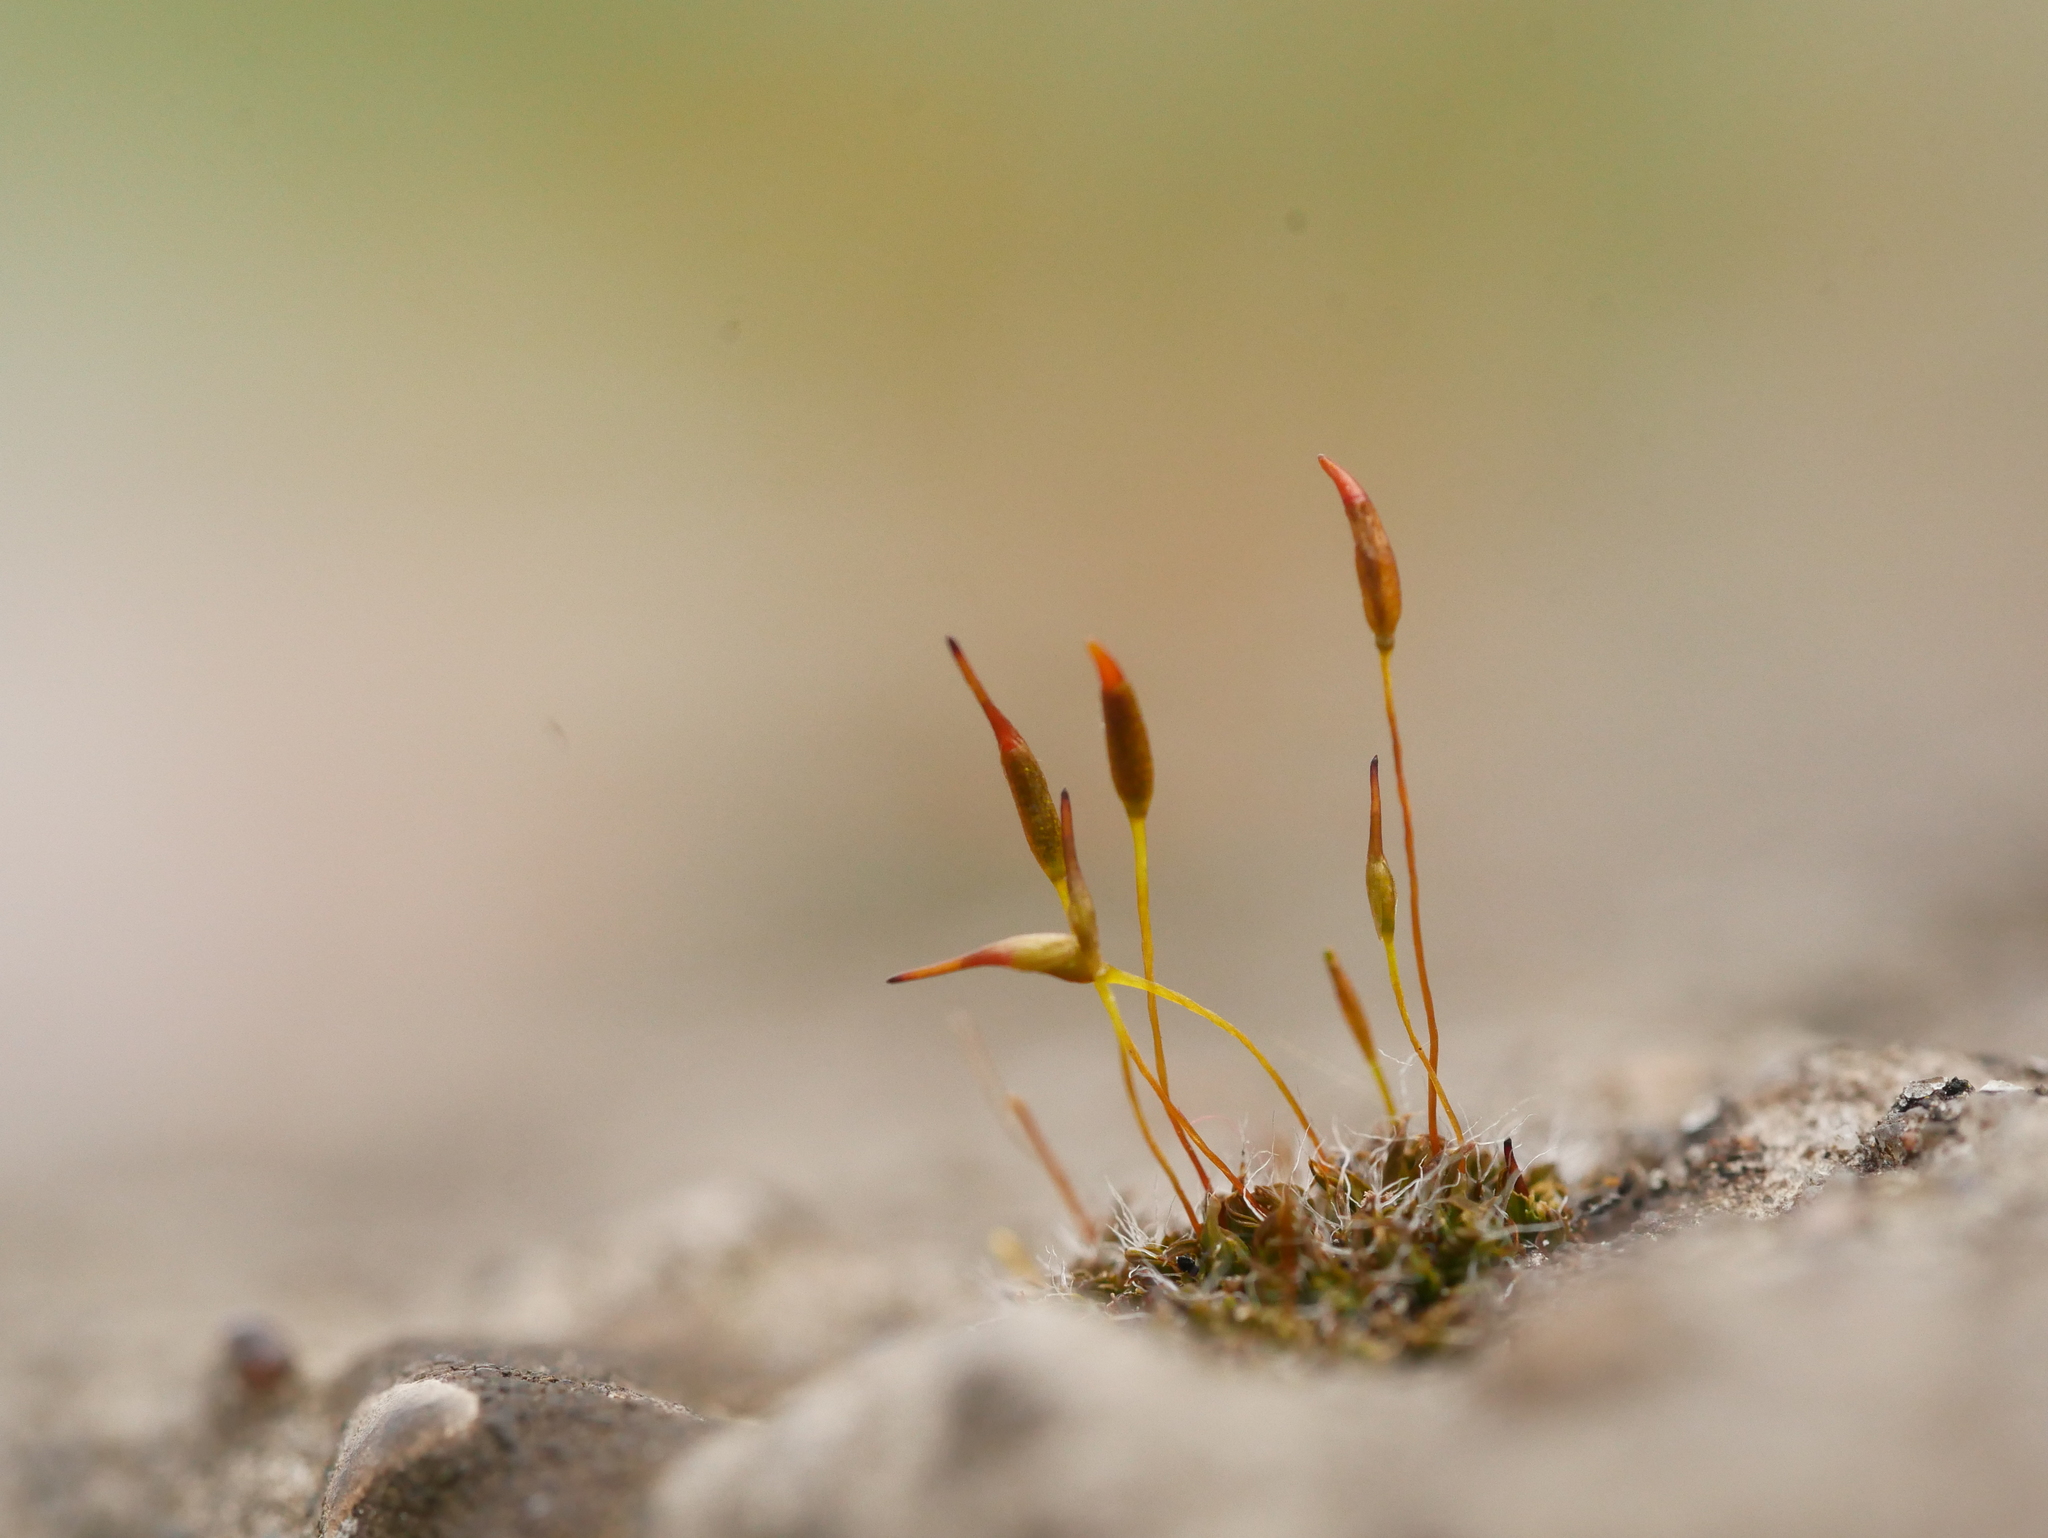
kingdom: Plantae
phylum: Bryophyta
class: Bryopsida
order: Pottiales
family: Pottiaceae
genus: Tortula
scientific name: Tortula muralis
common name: Wall screw-moss
